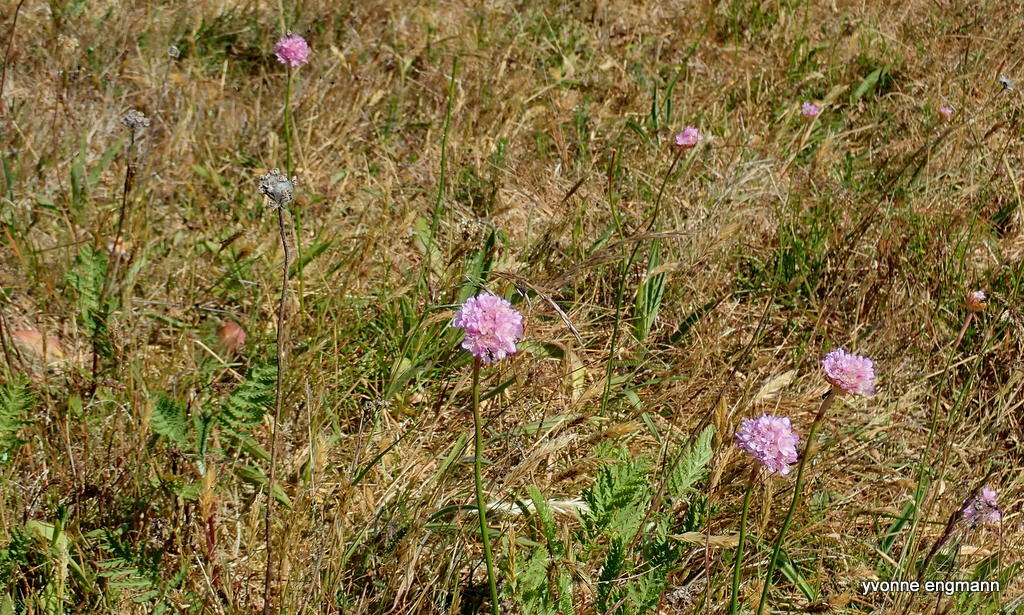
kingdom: Plantae
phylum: Tracheophyta
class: Magnoliopsida
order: Caryophyllales
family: Plumbaginaceae
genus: Armeria
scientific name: Armeria maritima
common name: Thrift
